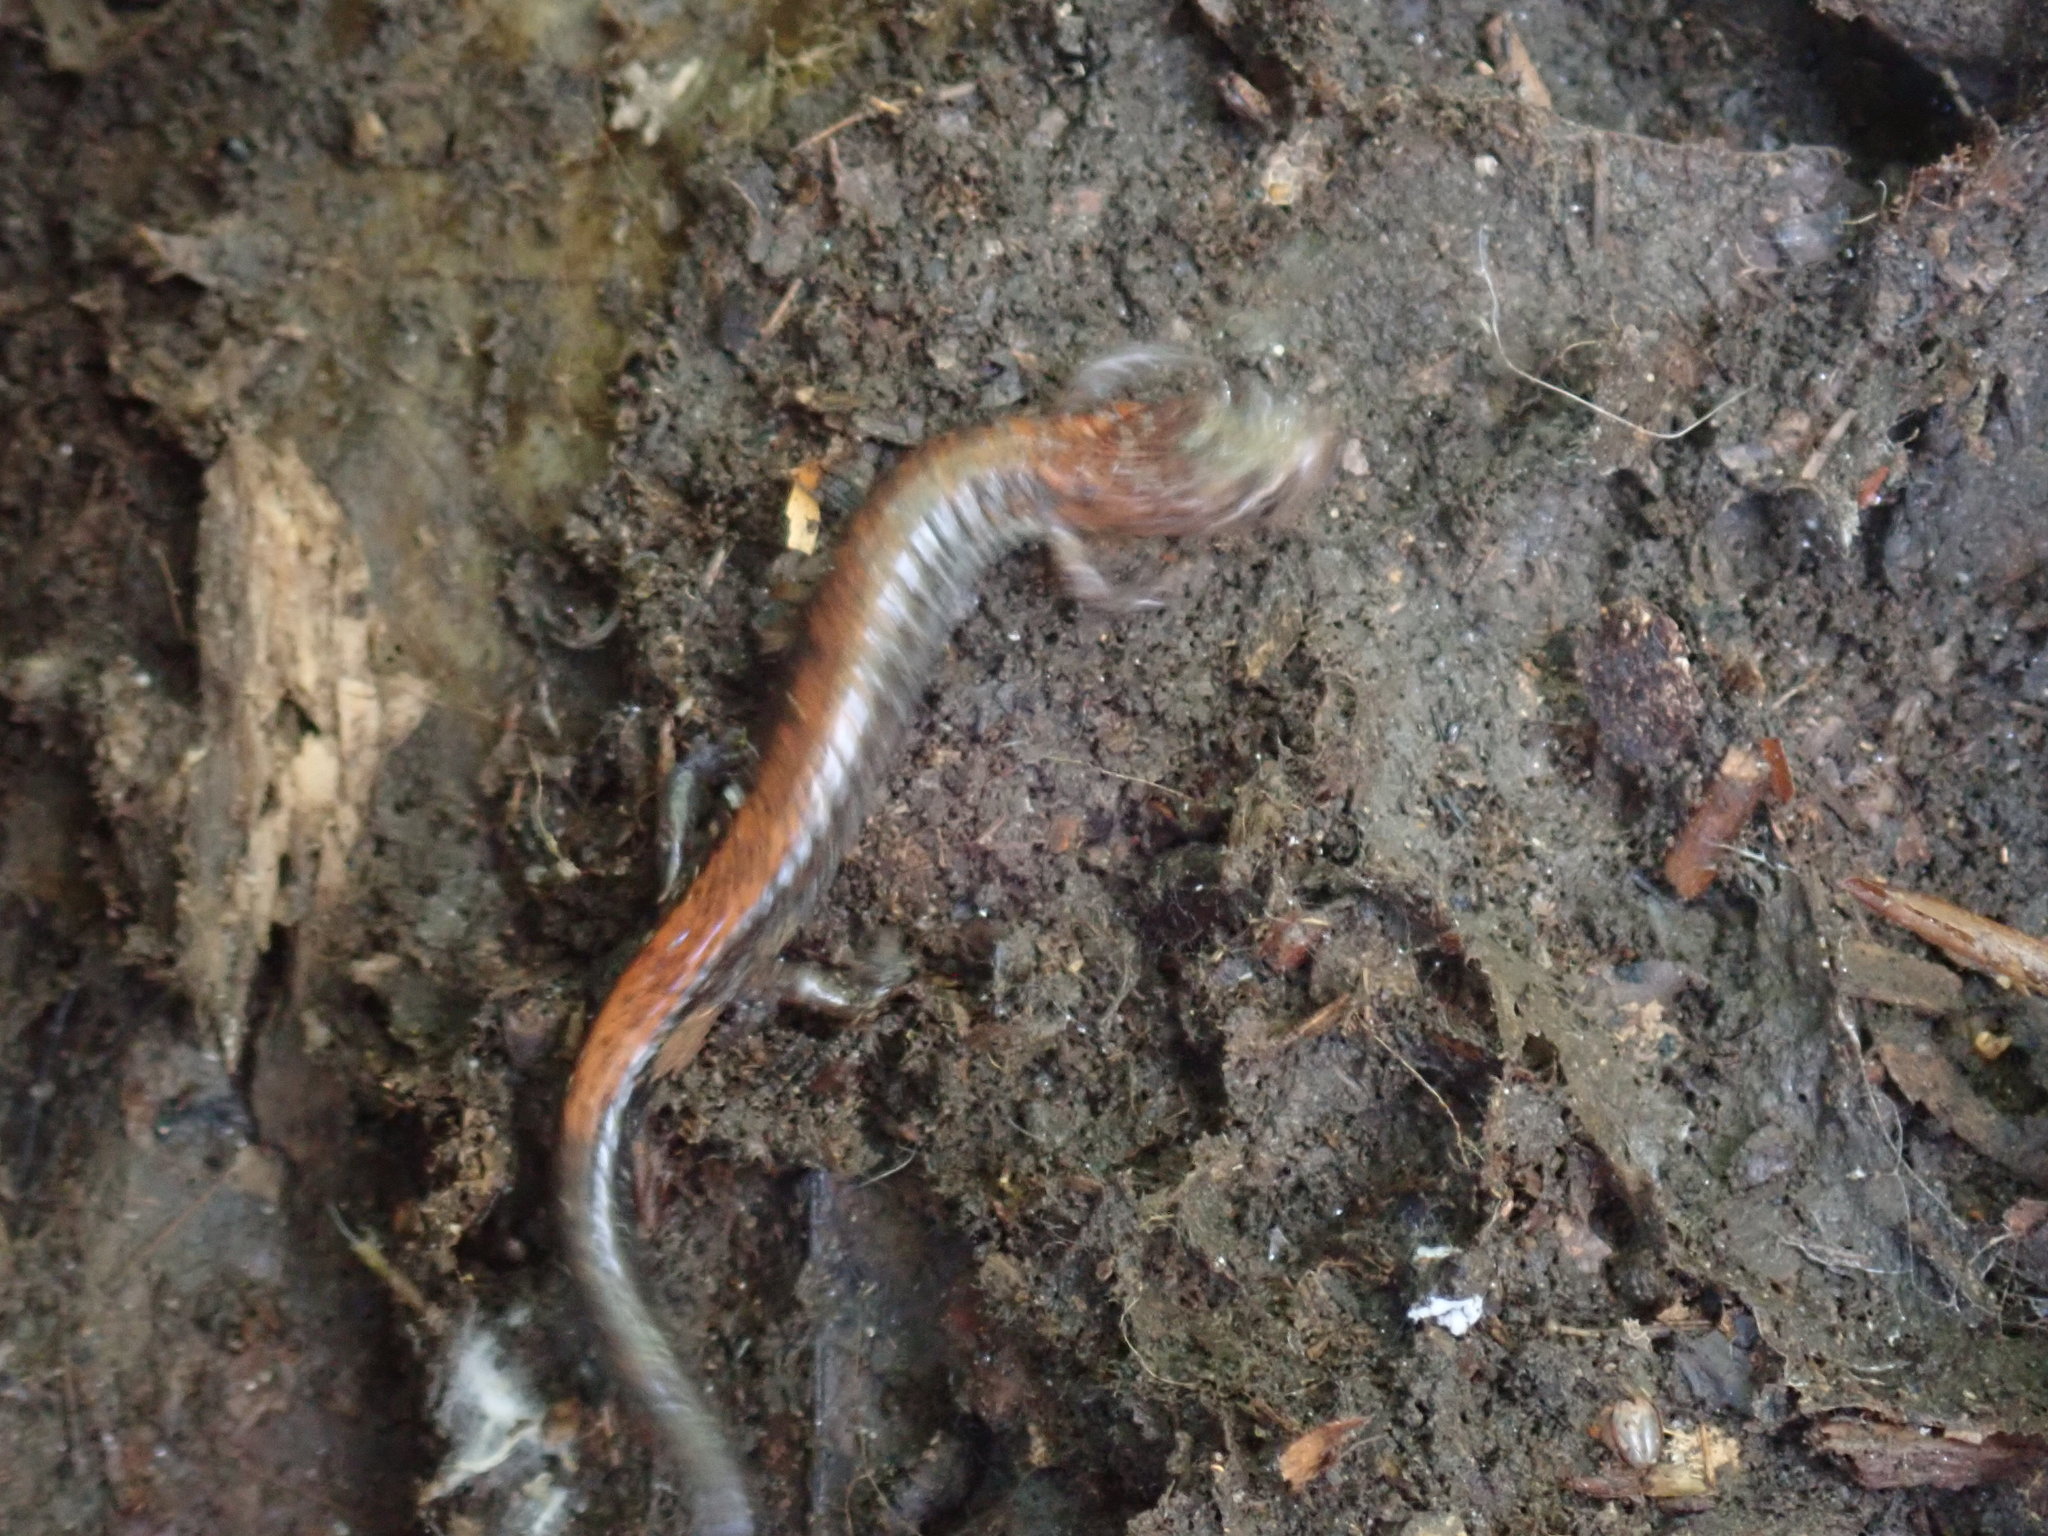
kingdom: Animalia
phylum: Chordata
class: Amphibia
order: Caudata
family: Plethodontidae
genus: Plethodon
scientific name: Plethodon cinereus
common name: Redback salamander
